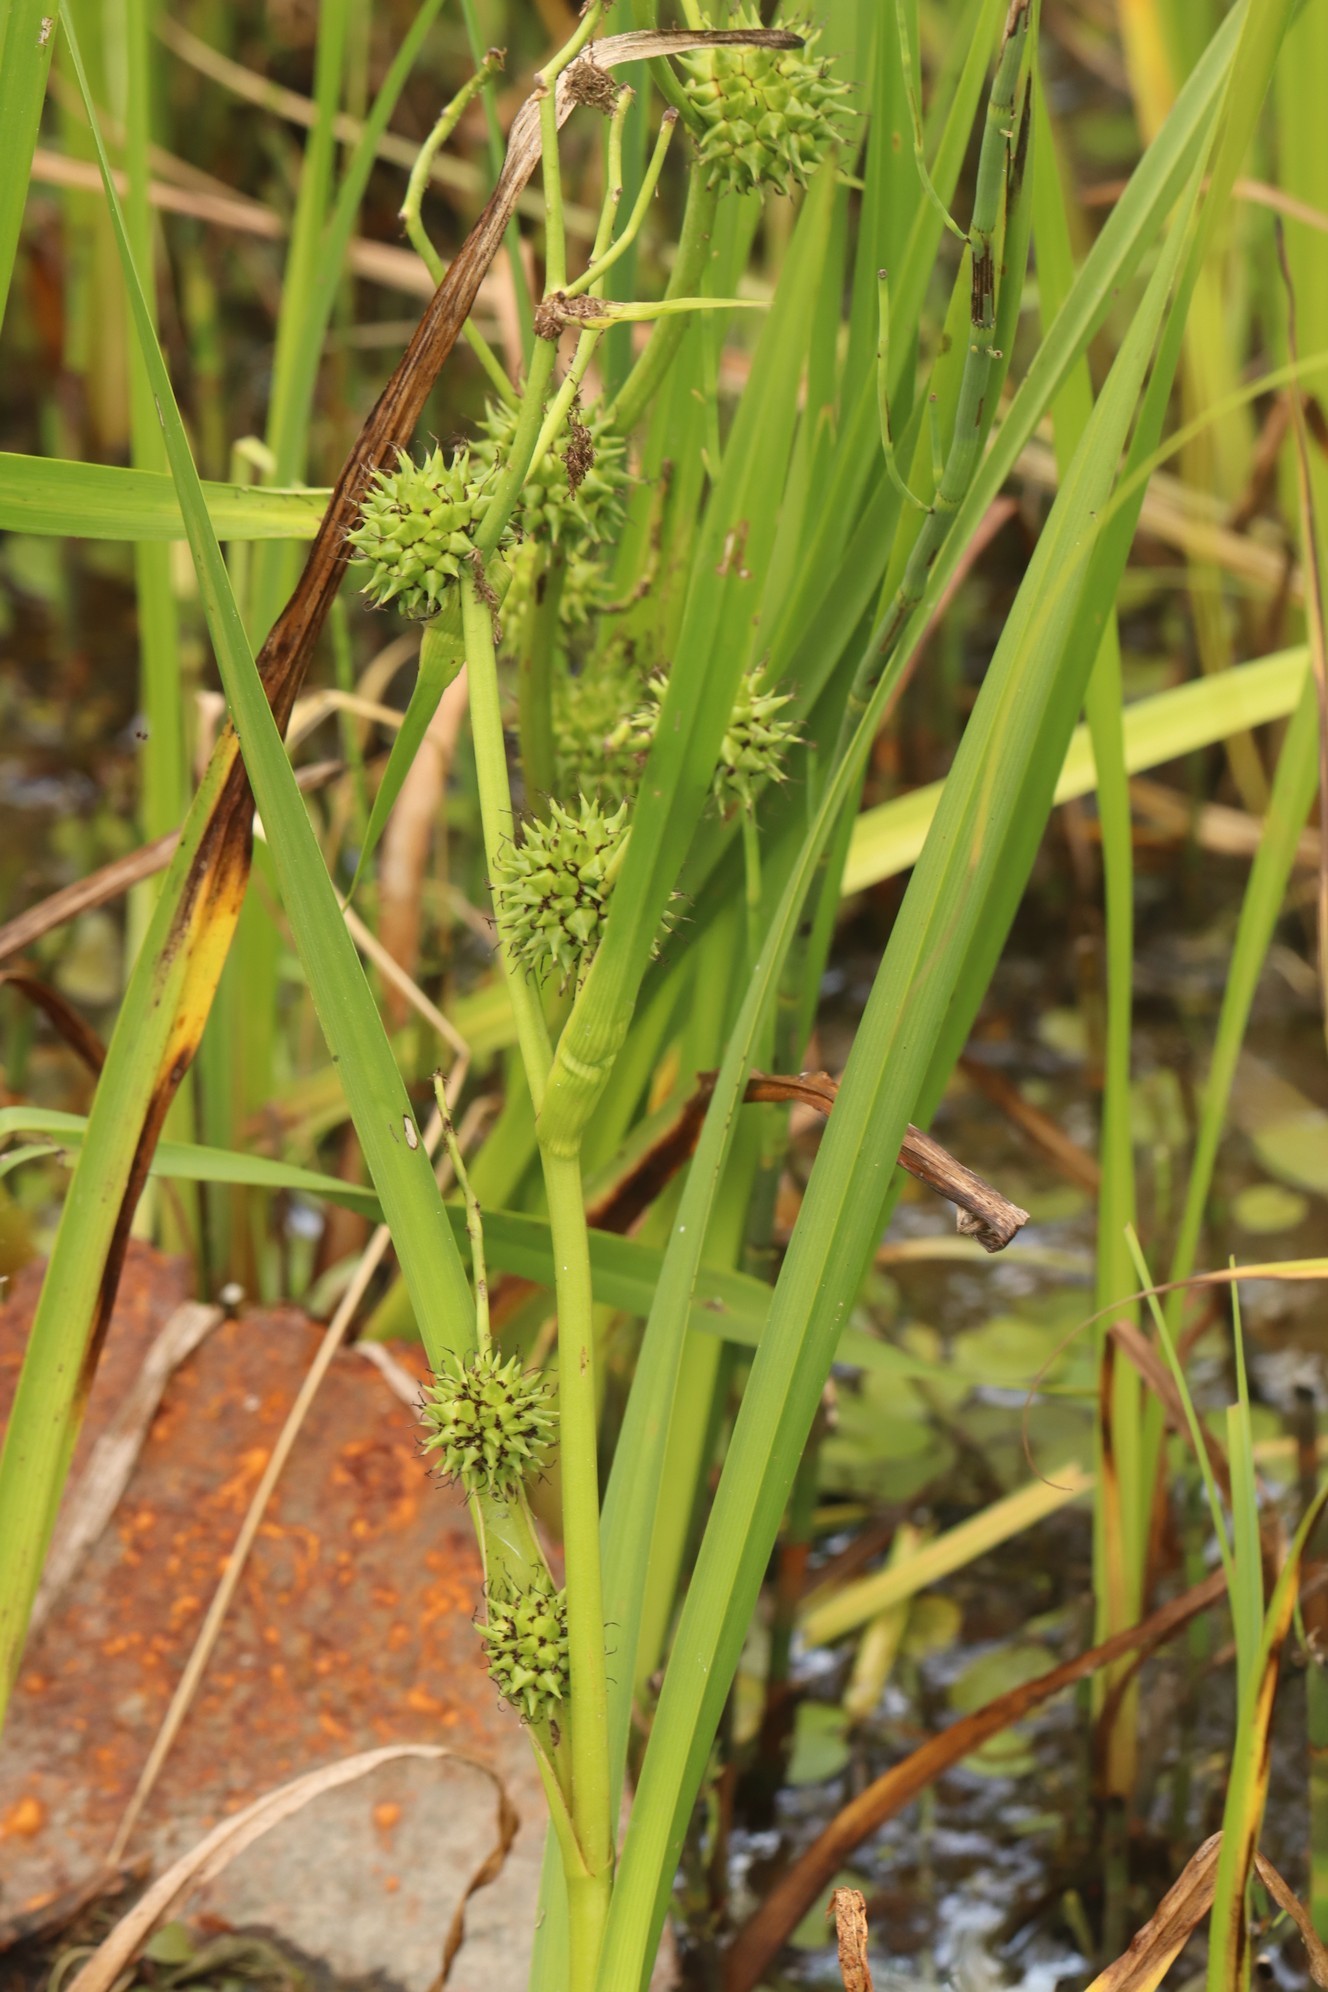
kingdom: Plantae
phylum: Tracheophyta
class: Liliopsida
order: Poales
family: Typhaceae
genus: Sparganium
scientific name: Sparganium erectum
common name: Branched bur-reed
